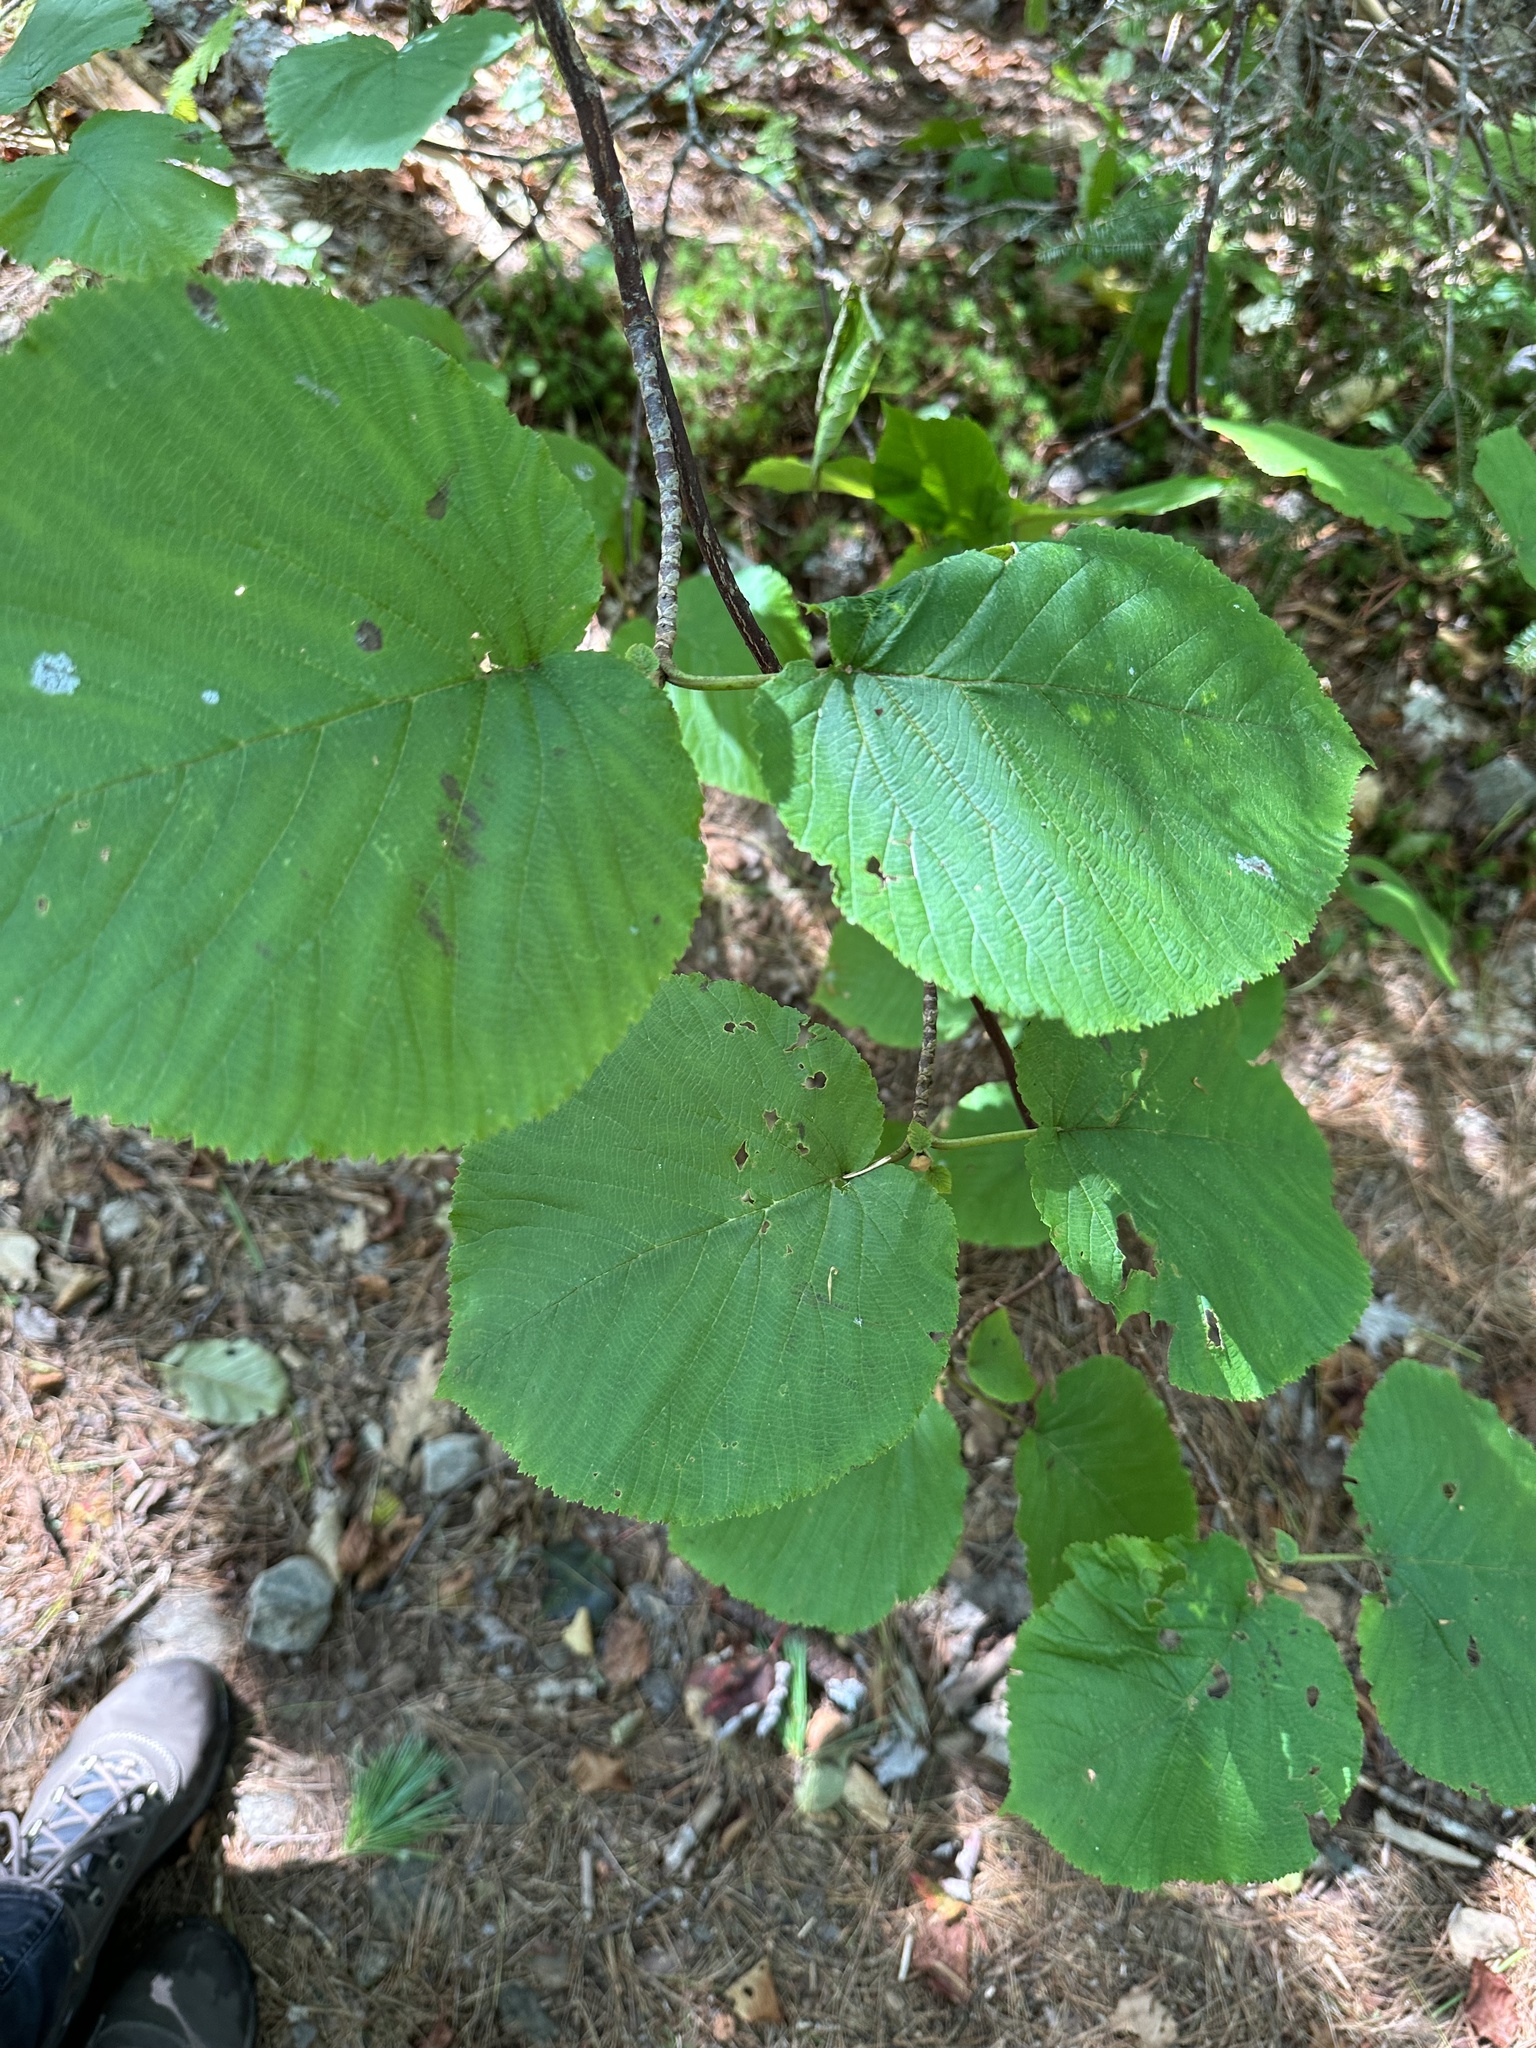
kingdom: Plantae
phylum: Tracheophyta
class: Magnoliopsida
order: Dipsacales
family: Viburnaceae
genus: Viburnum
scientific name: Viburnum lantanoides
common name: Hobblebush
